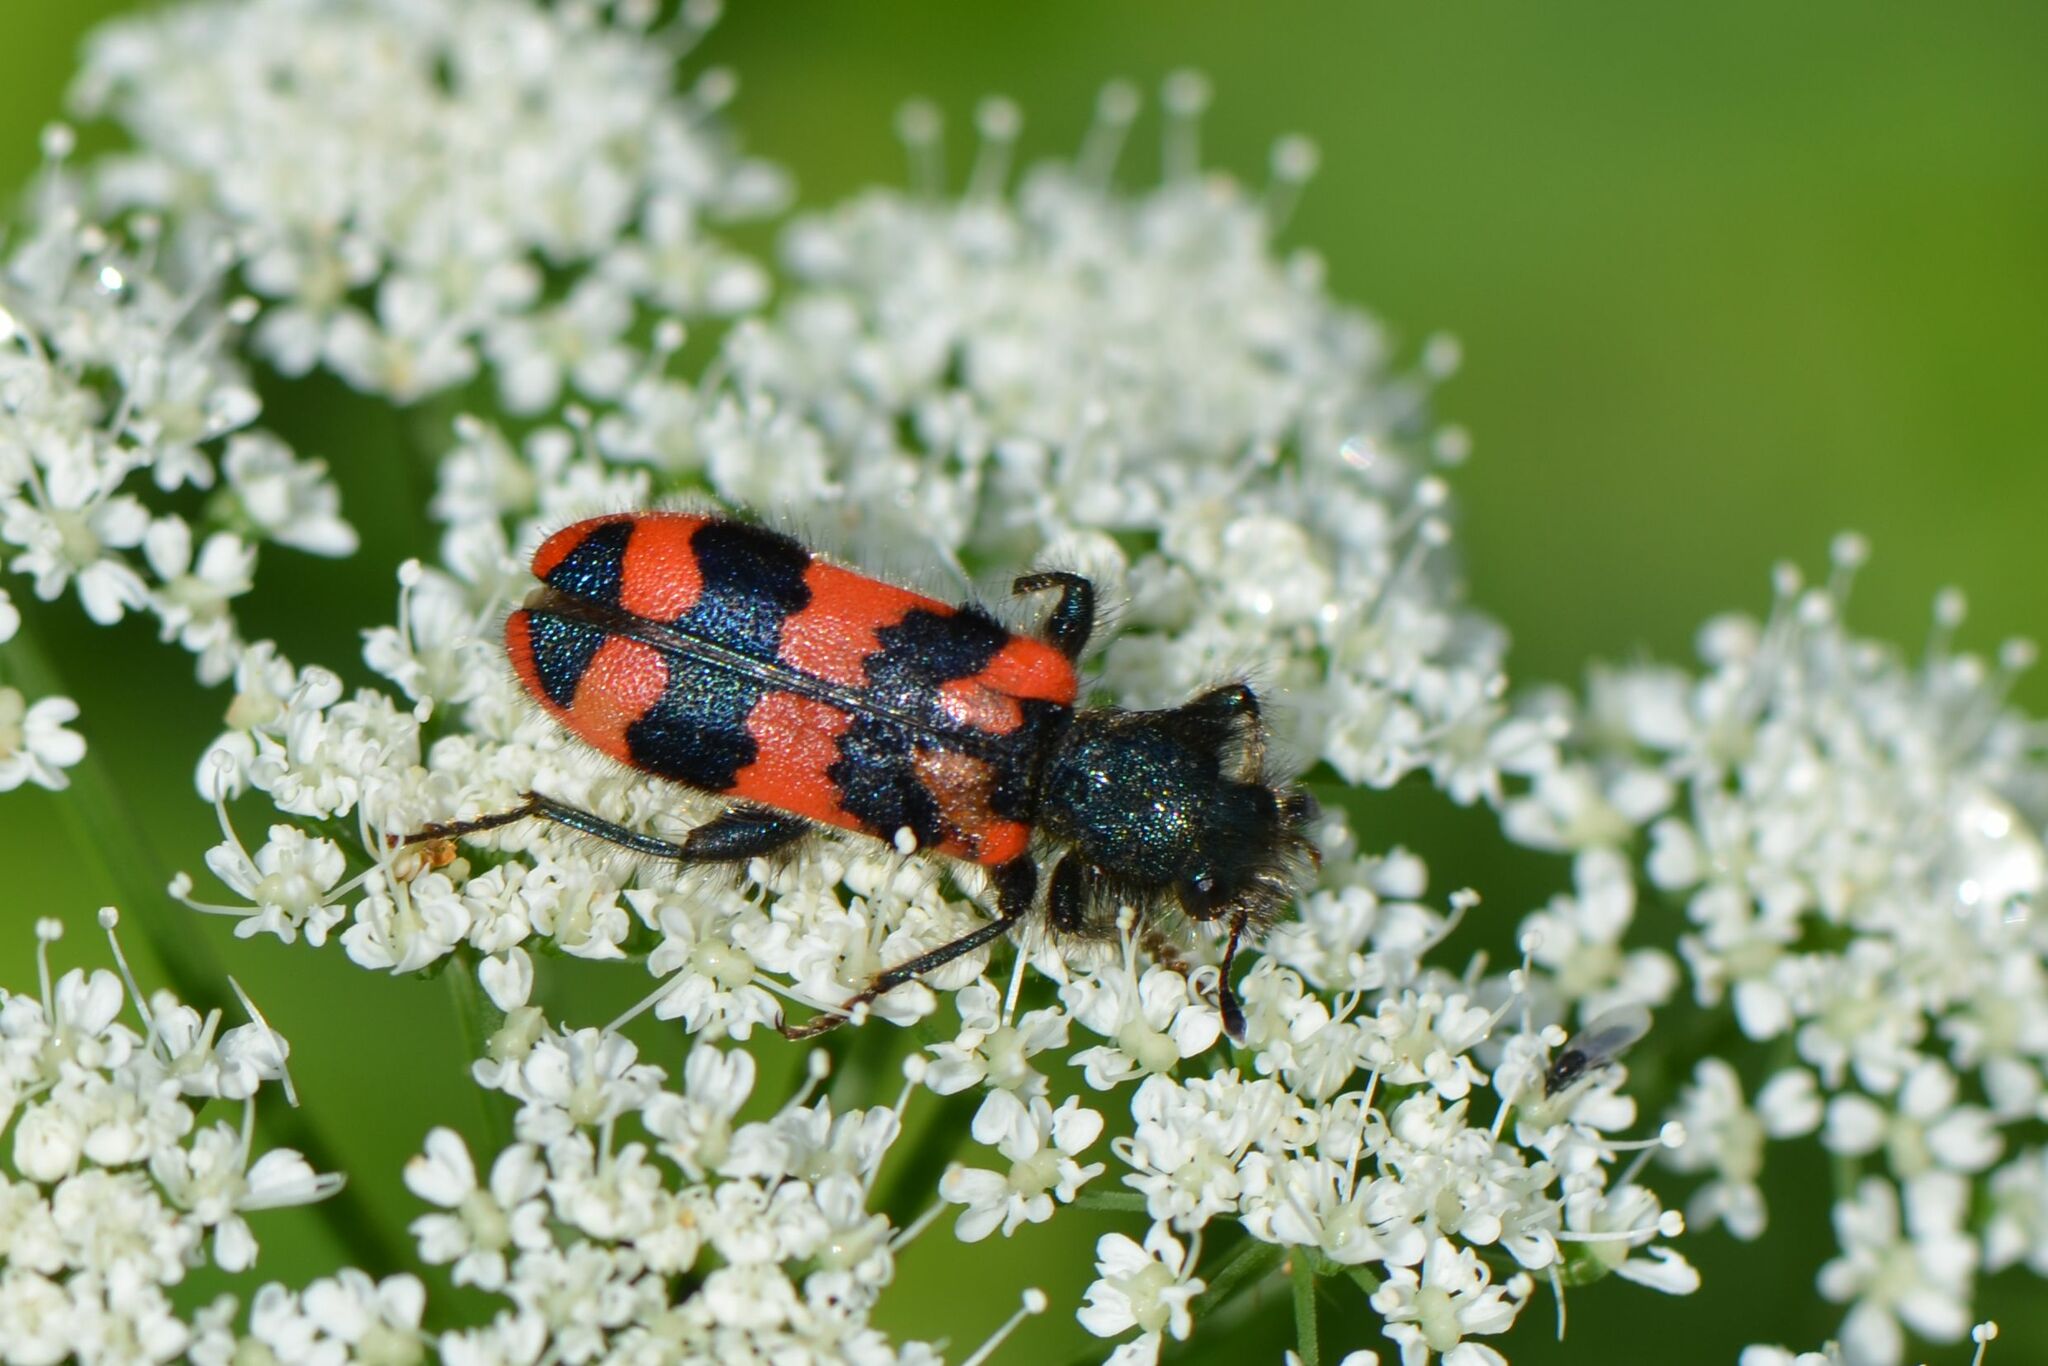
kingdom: Animalia
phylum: Arthropoda
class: Insecta
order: Coleoptera
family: Cleridae
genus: Trichodes
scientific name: Trichodes alvearius
